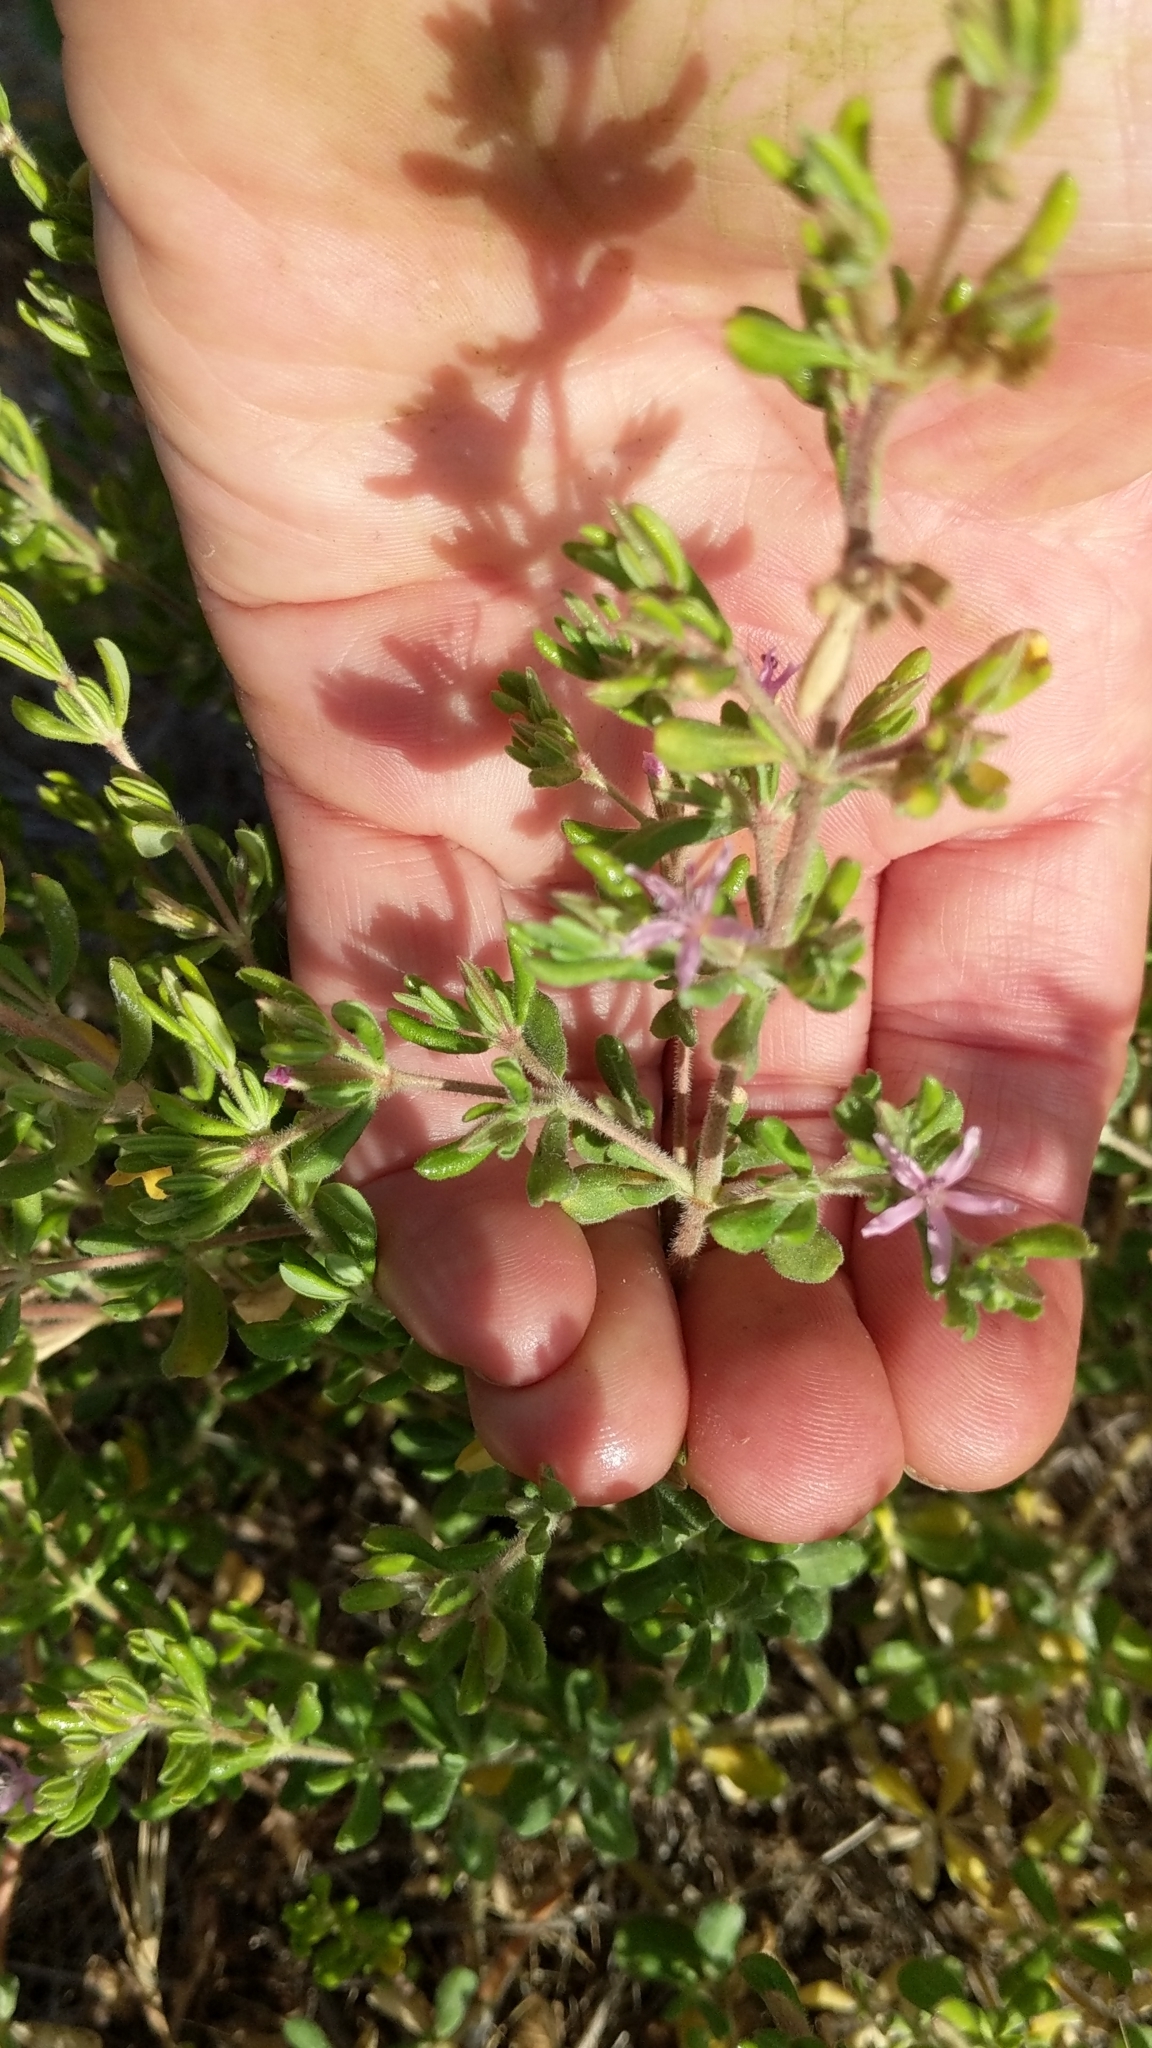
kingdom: Plantae
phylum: Tracheophyta
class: Magnoliopsida
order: Caryophyllales
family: Frankeniaceae
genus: Frankenia
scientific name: Frankenia salina
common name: Alkali seaheath
